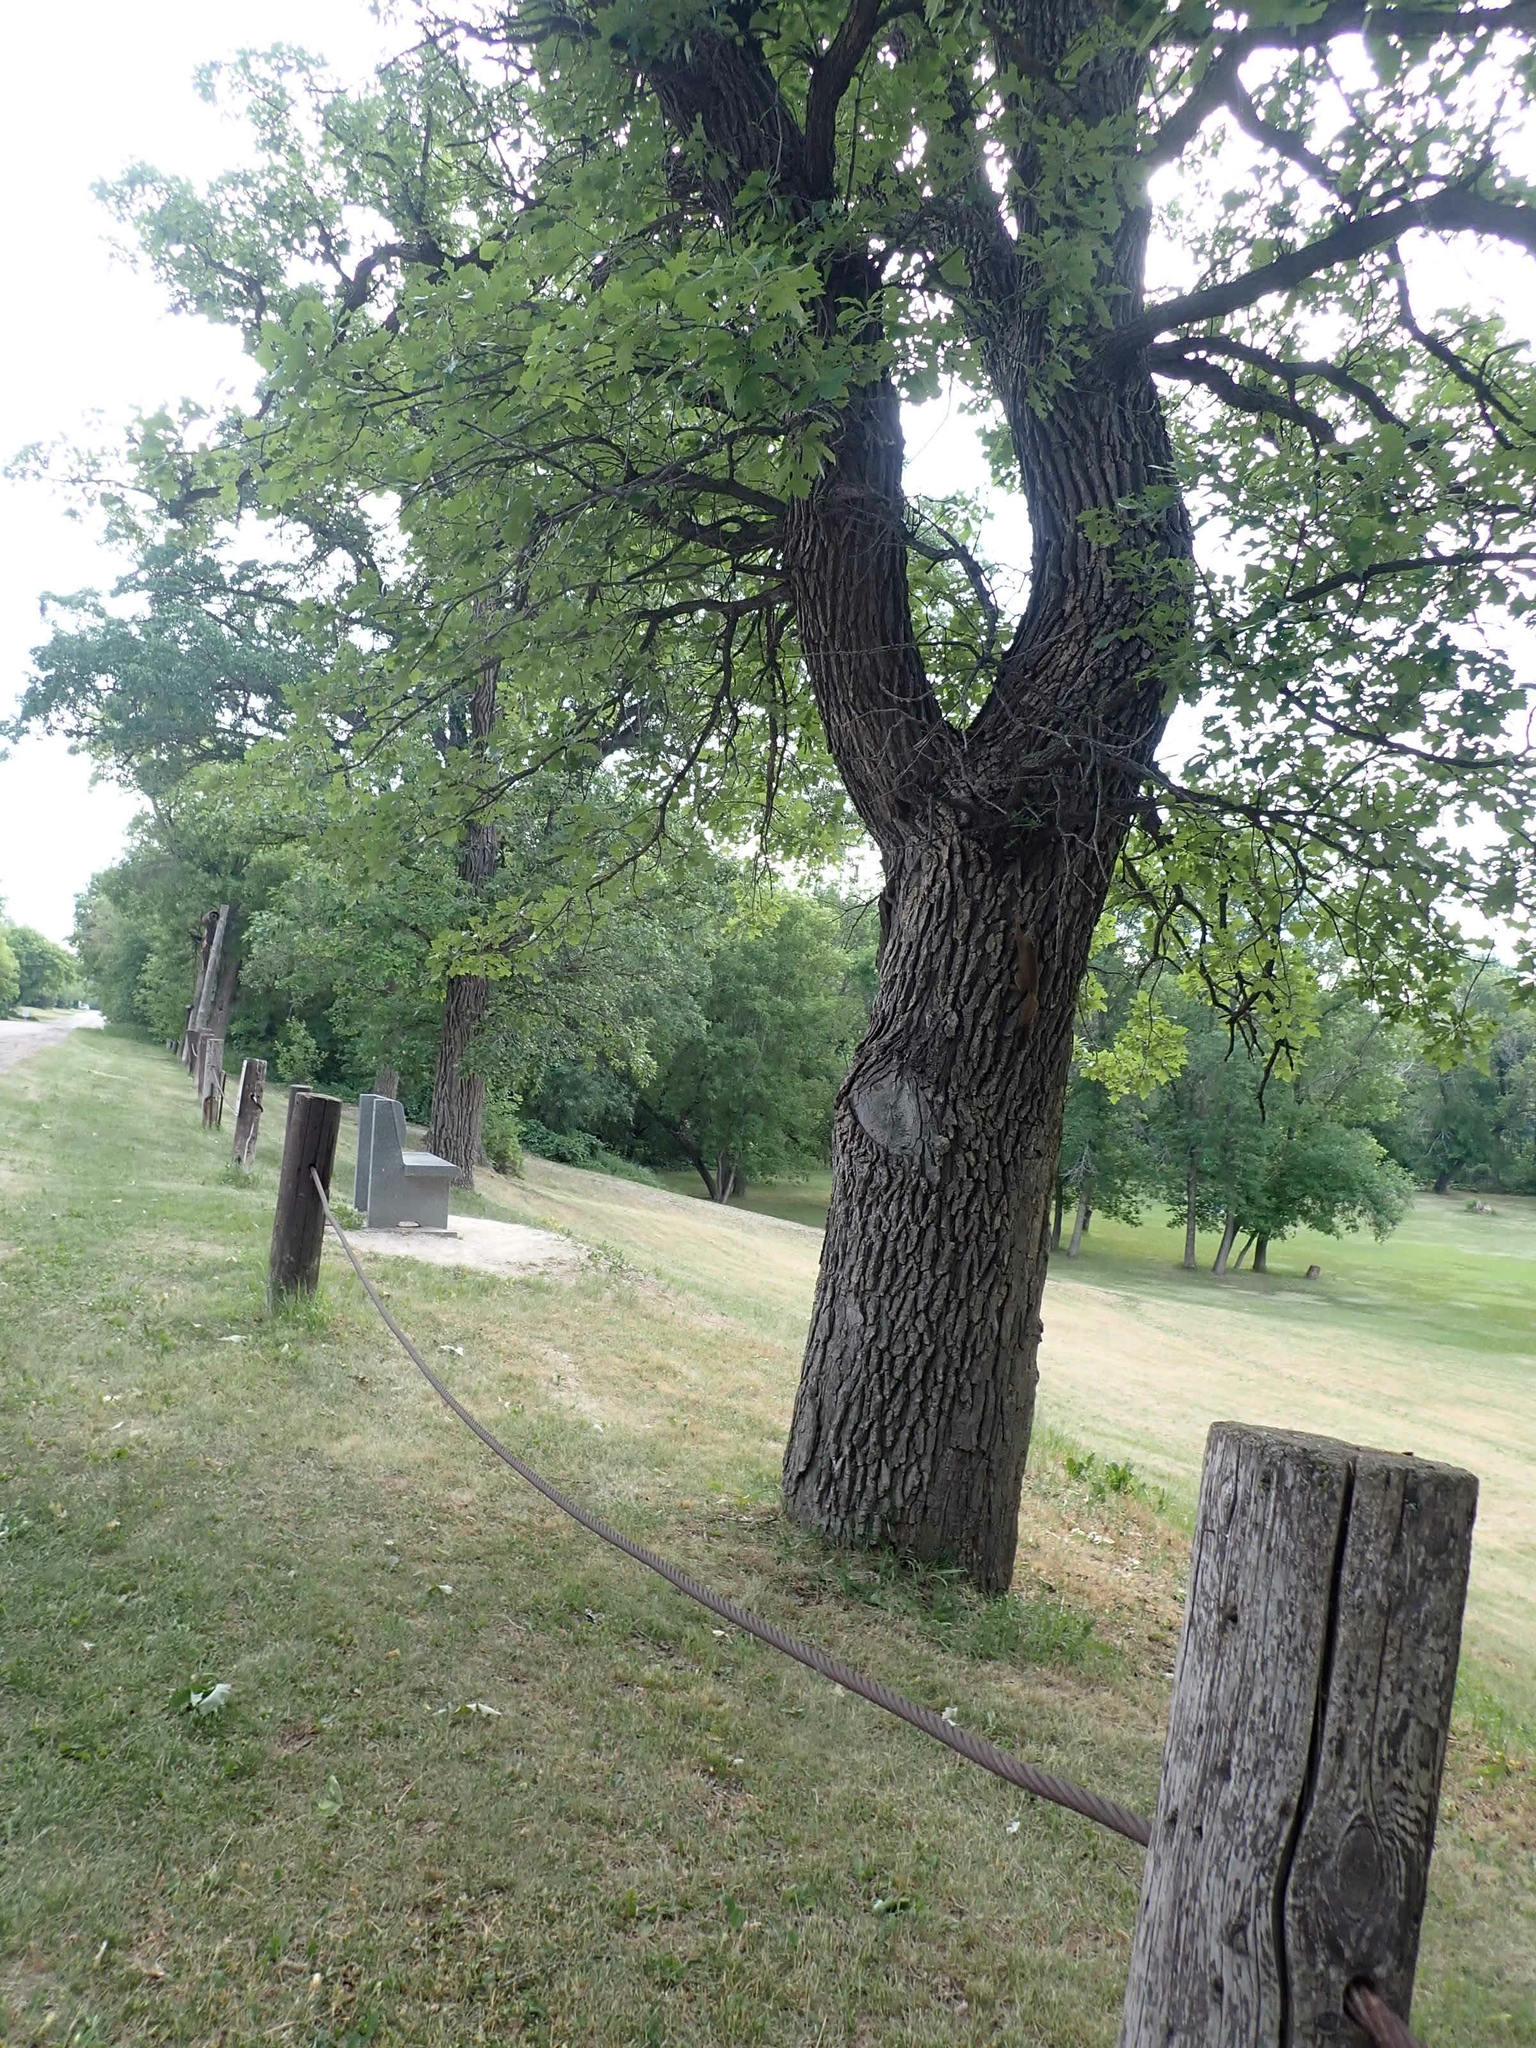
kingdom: Plantae
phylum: Tracheophyta
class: Magnoliopsida
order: Fagales
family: Fagaceae
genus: Quercus
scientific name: Quercus macrocarpa
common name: Bur oak
